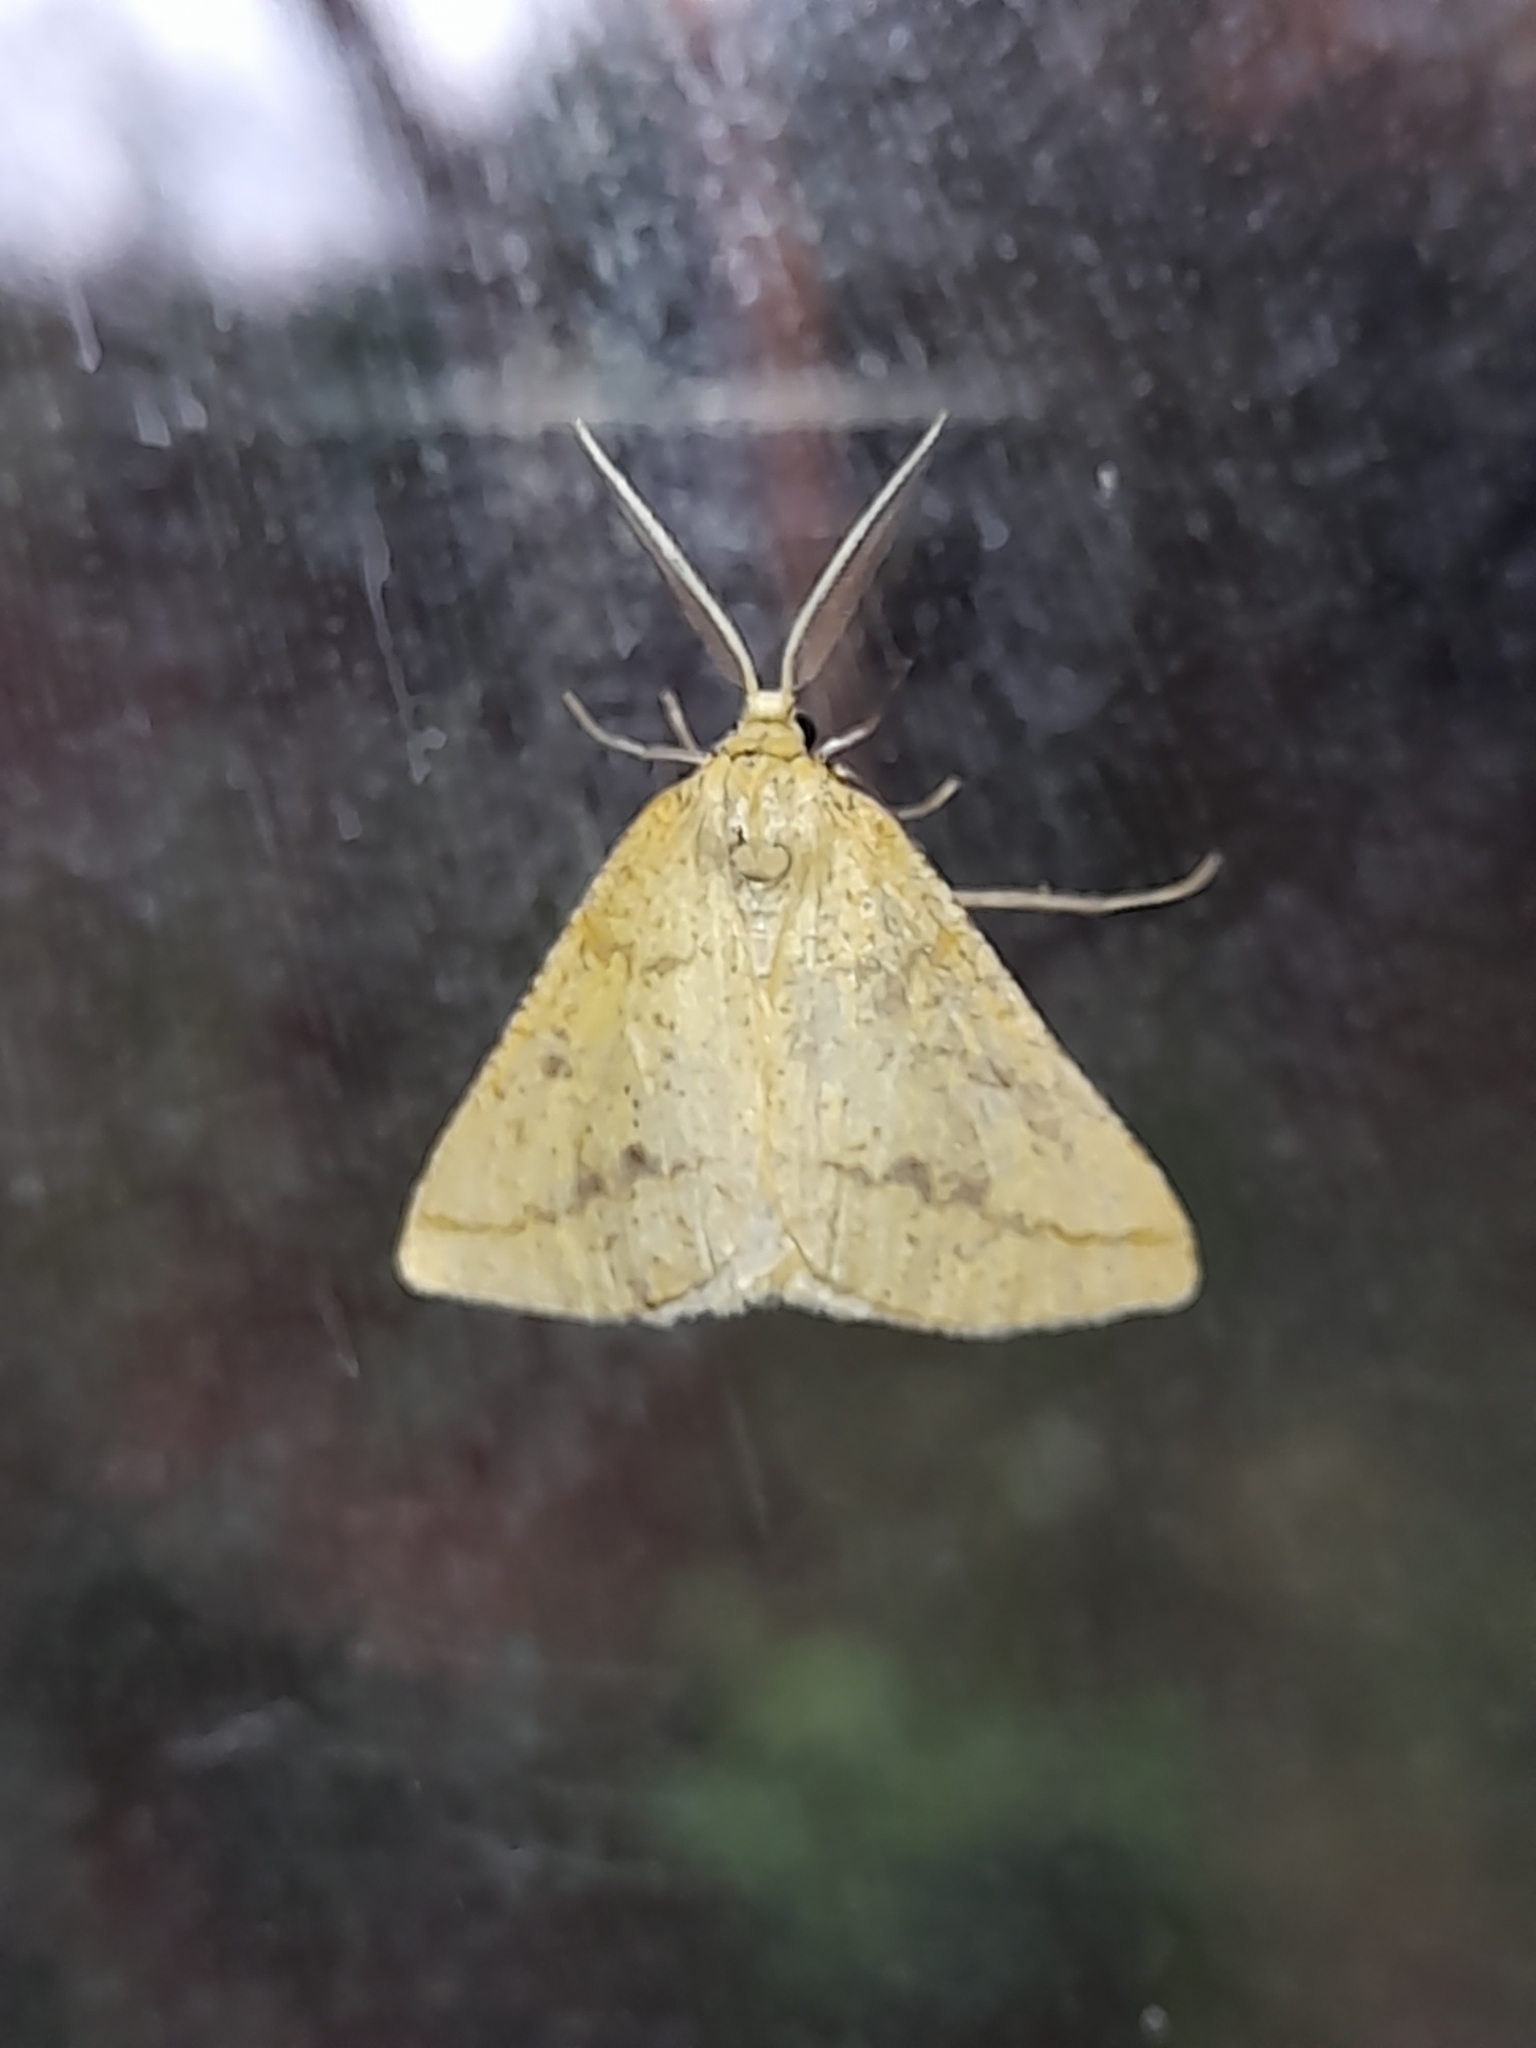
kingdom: Animalia
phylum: Arthropoda
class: Insecta
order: Lepidoptera
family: Geometridae
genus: Aspitates
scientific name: Aspitates ochrearia
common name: Yellow belle
